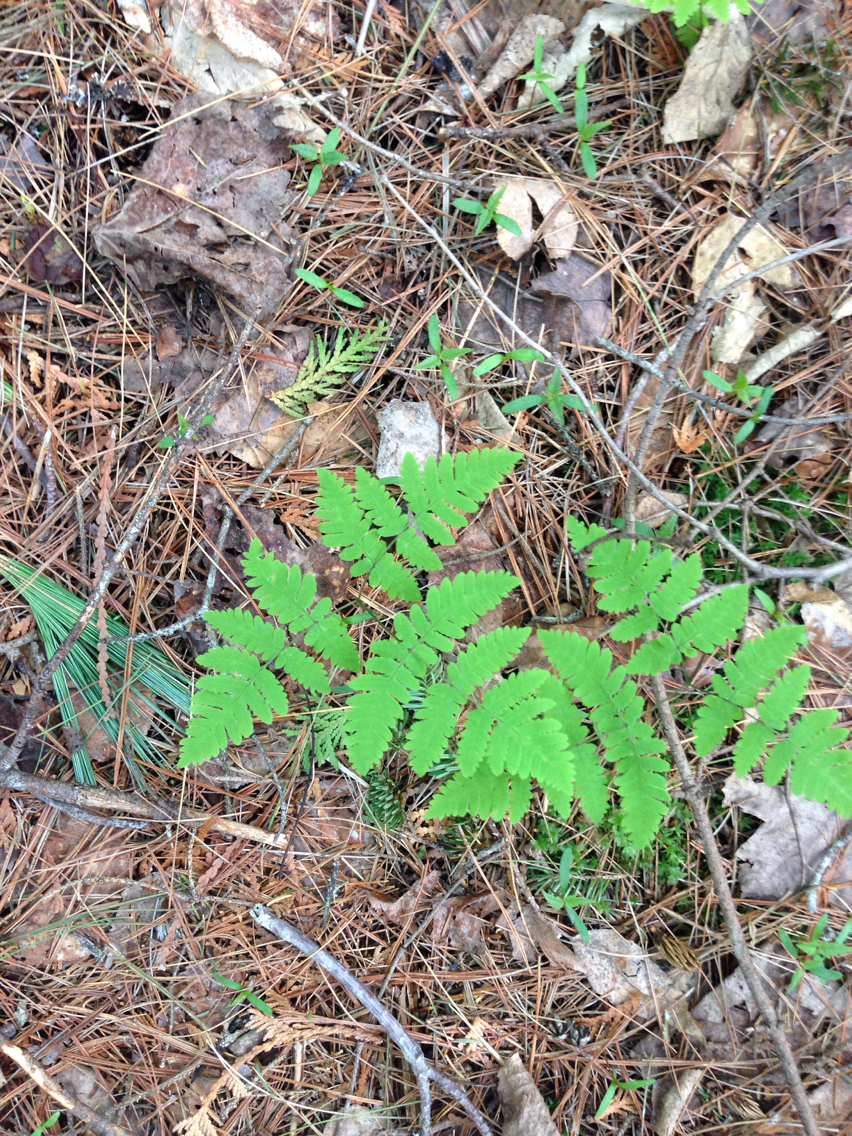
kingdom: Plantae
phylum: Tracheophyta
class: Polypodiopsida
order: Polypodiales
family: Cystopteridaceae
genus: Gymnocarpium
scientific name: Gymnocarpium dryopteris
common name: Oak fern
